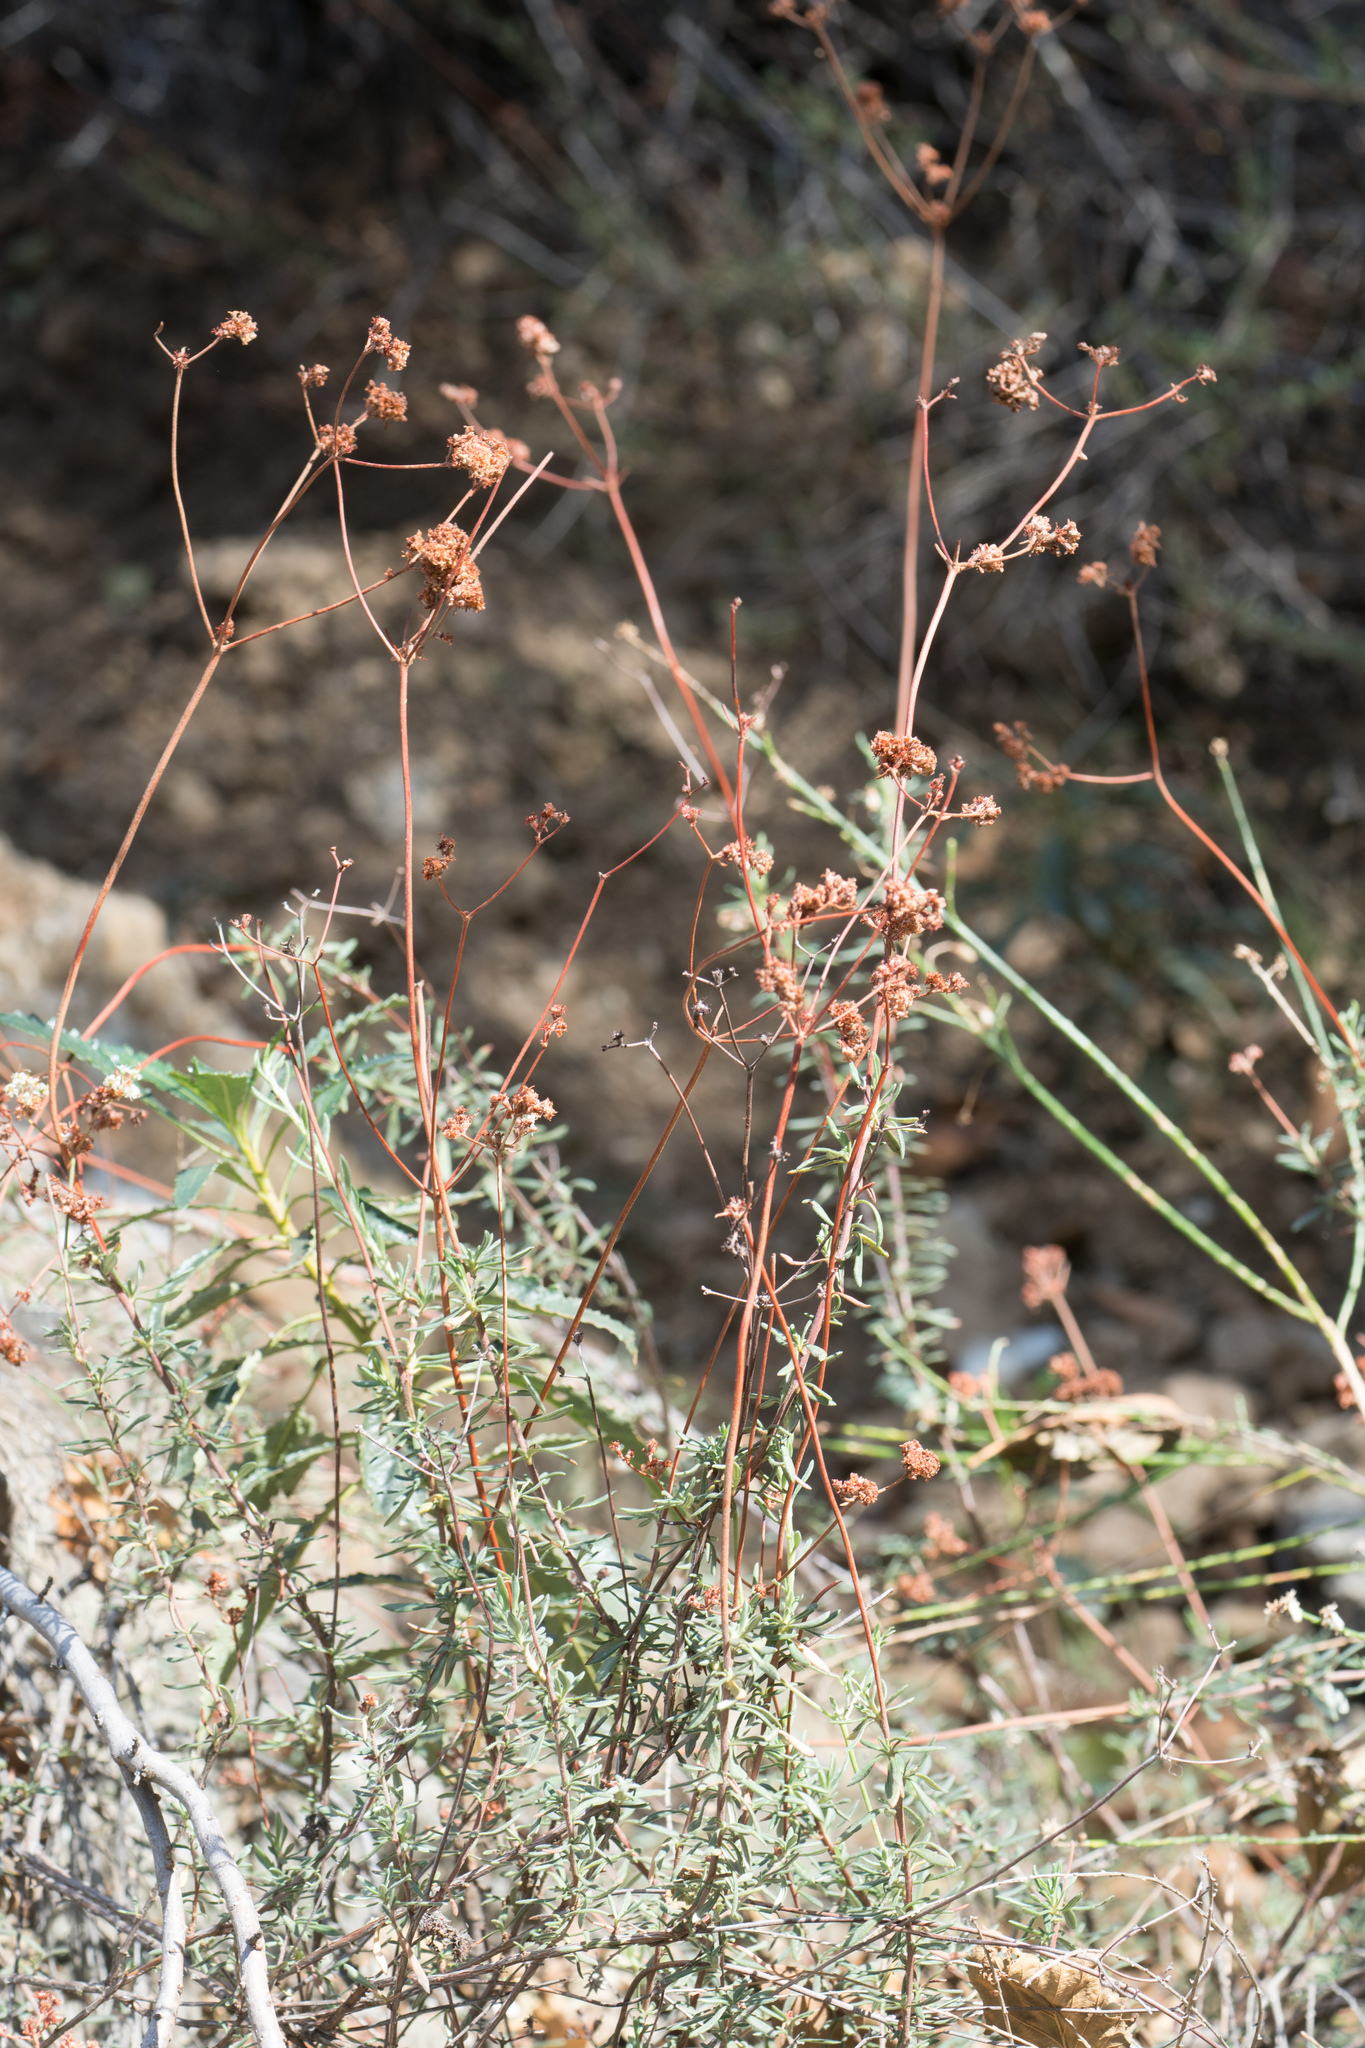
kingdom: Plantae
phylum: Tracheophyta
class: Magnoliopsida
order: Caryophyllales
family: Polygonaceae
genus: Eriogonum
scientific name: Eriogonum fasciculatum
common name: California wild buckwheat
